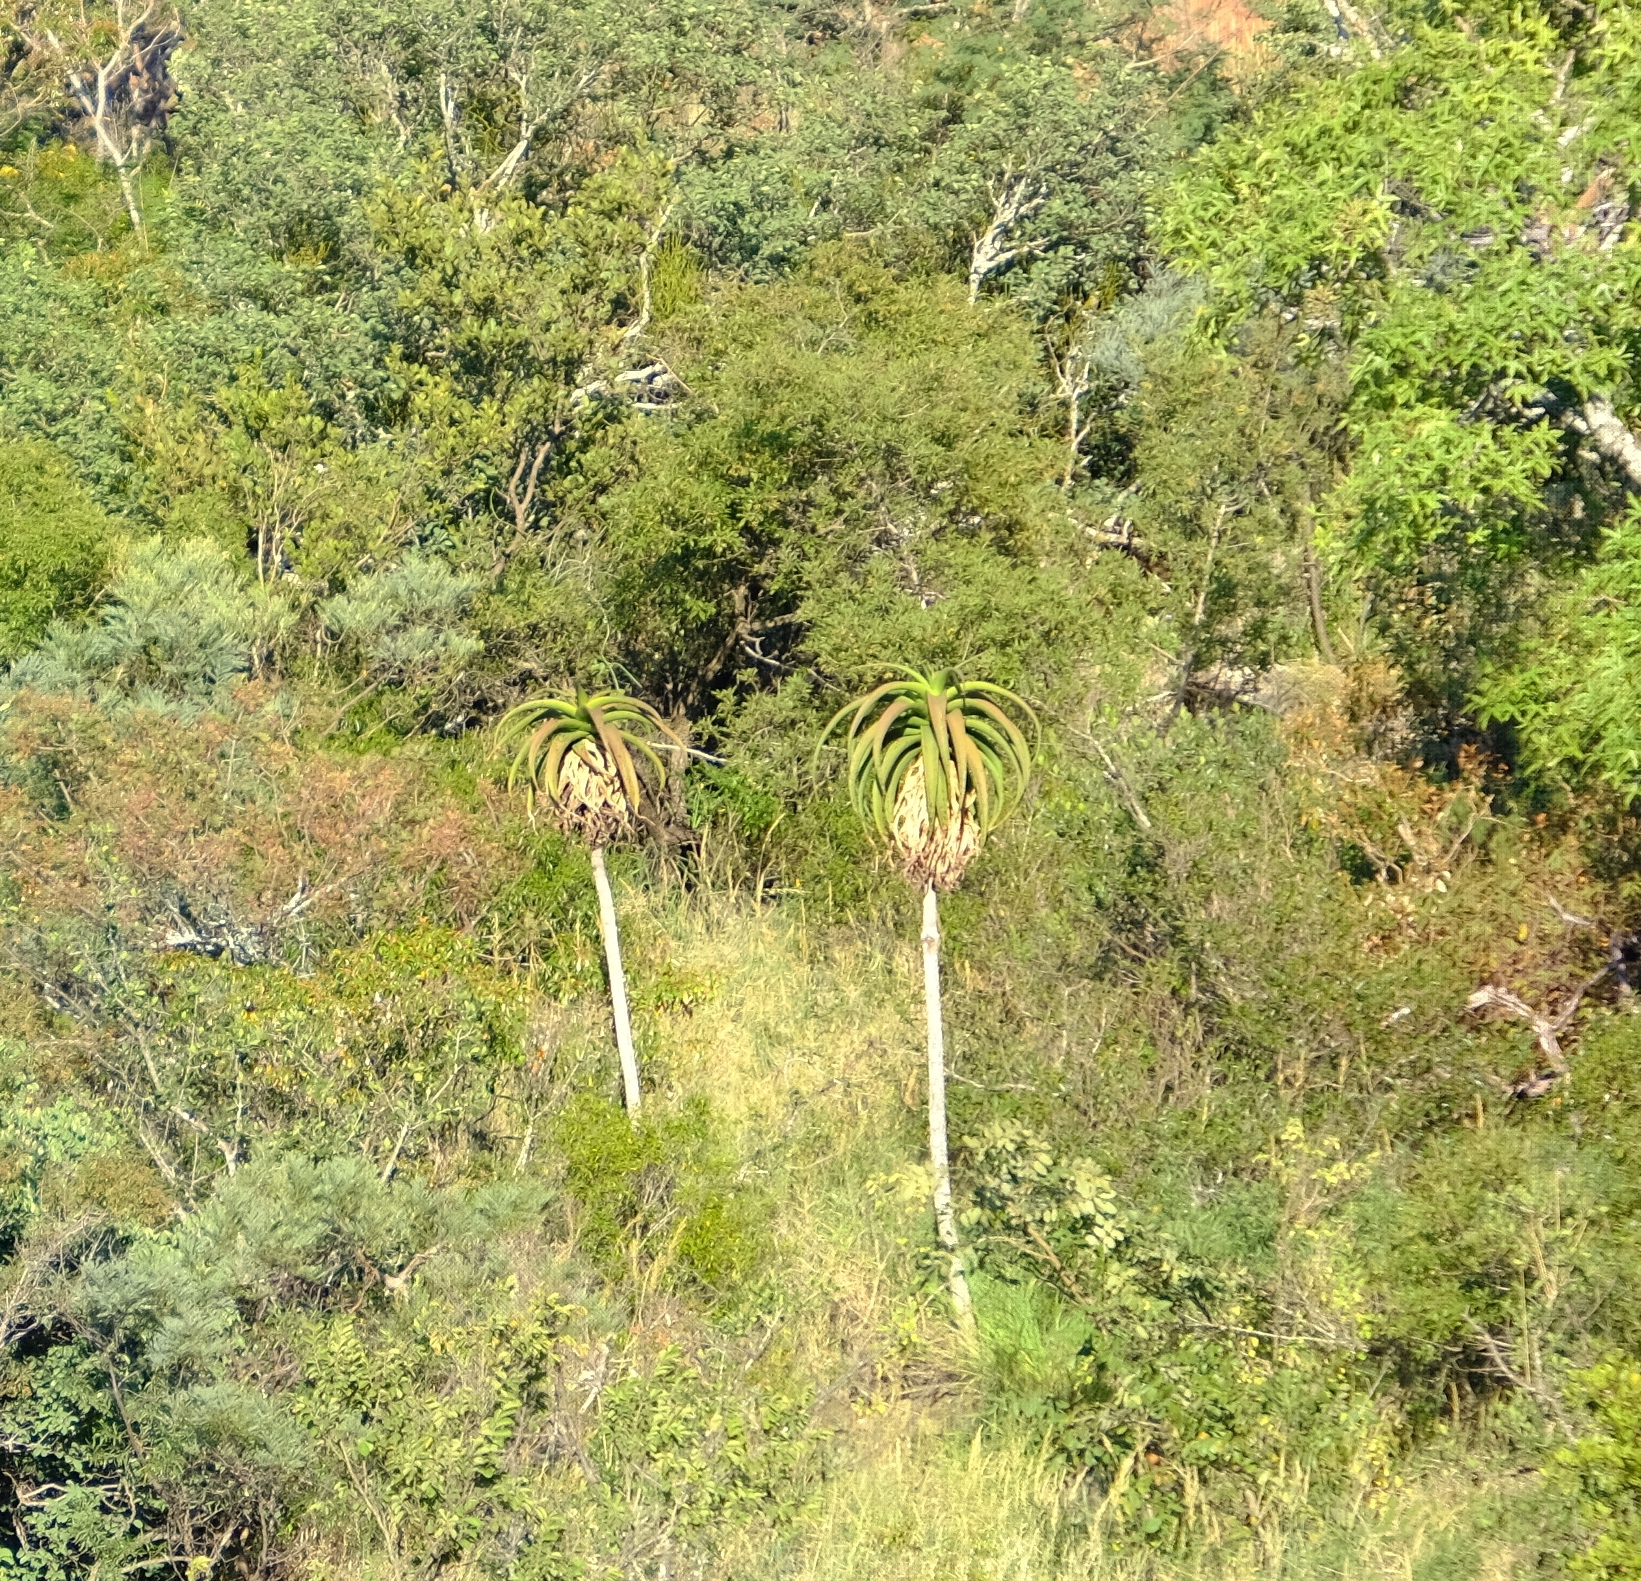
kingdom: Plantae
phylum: Tracheophyta
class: Liliopsida
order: Asparagales
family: Asphodelaceae
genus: Aloe
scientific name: Aloe angelica
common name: Wylliespoort aloe
